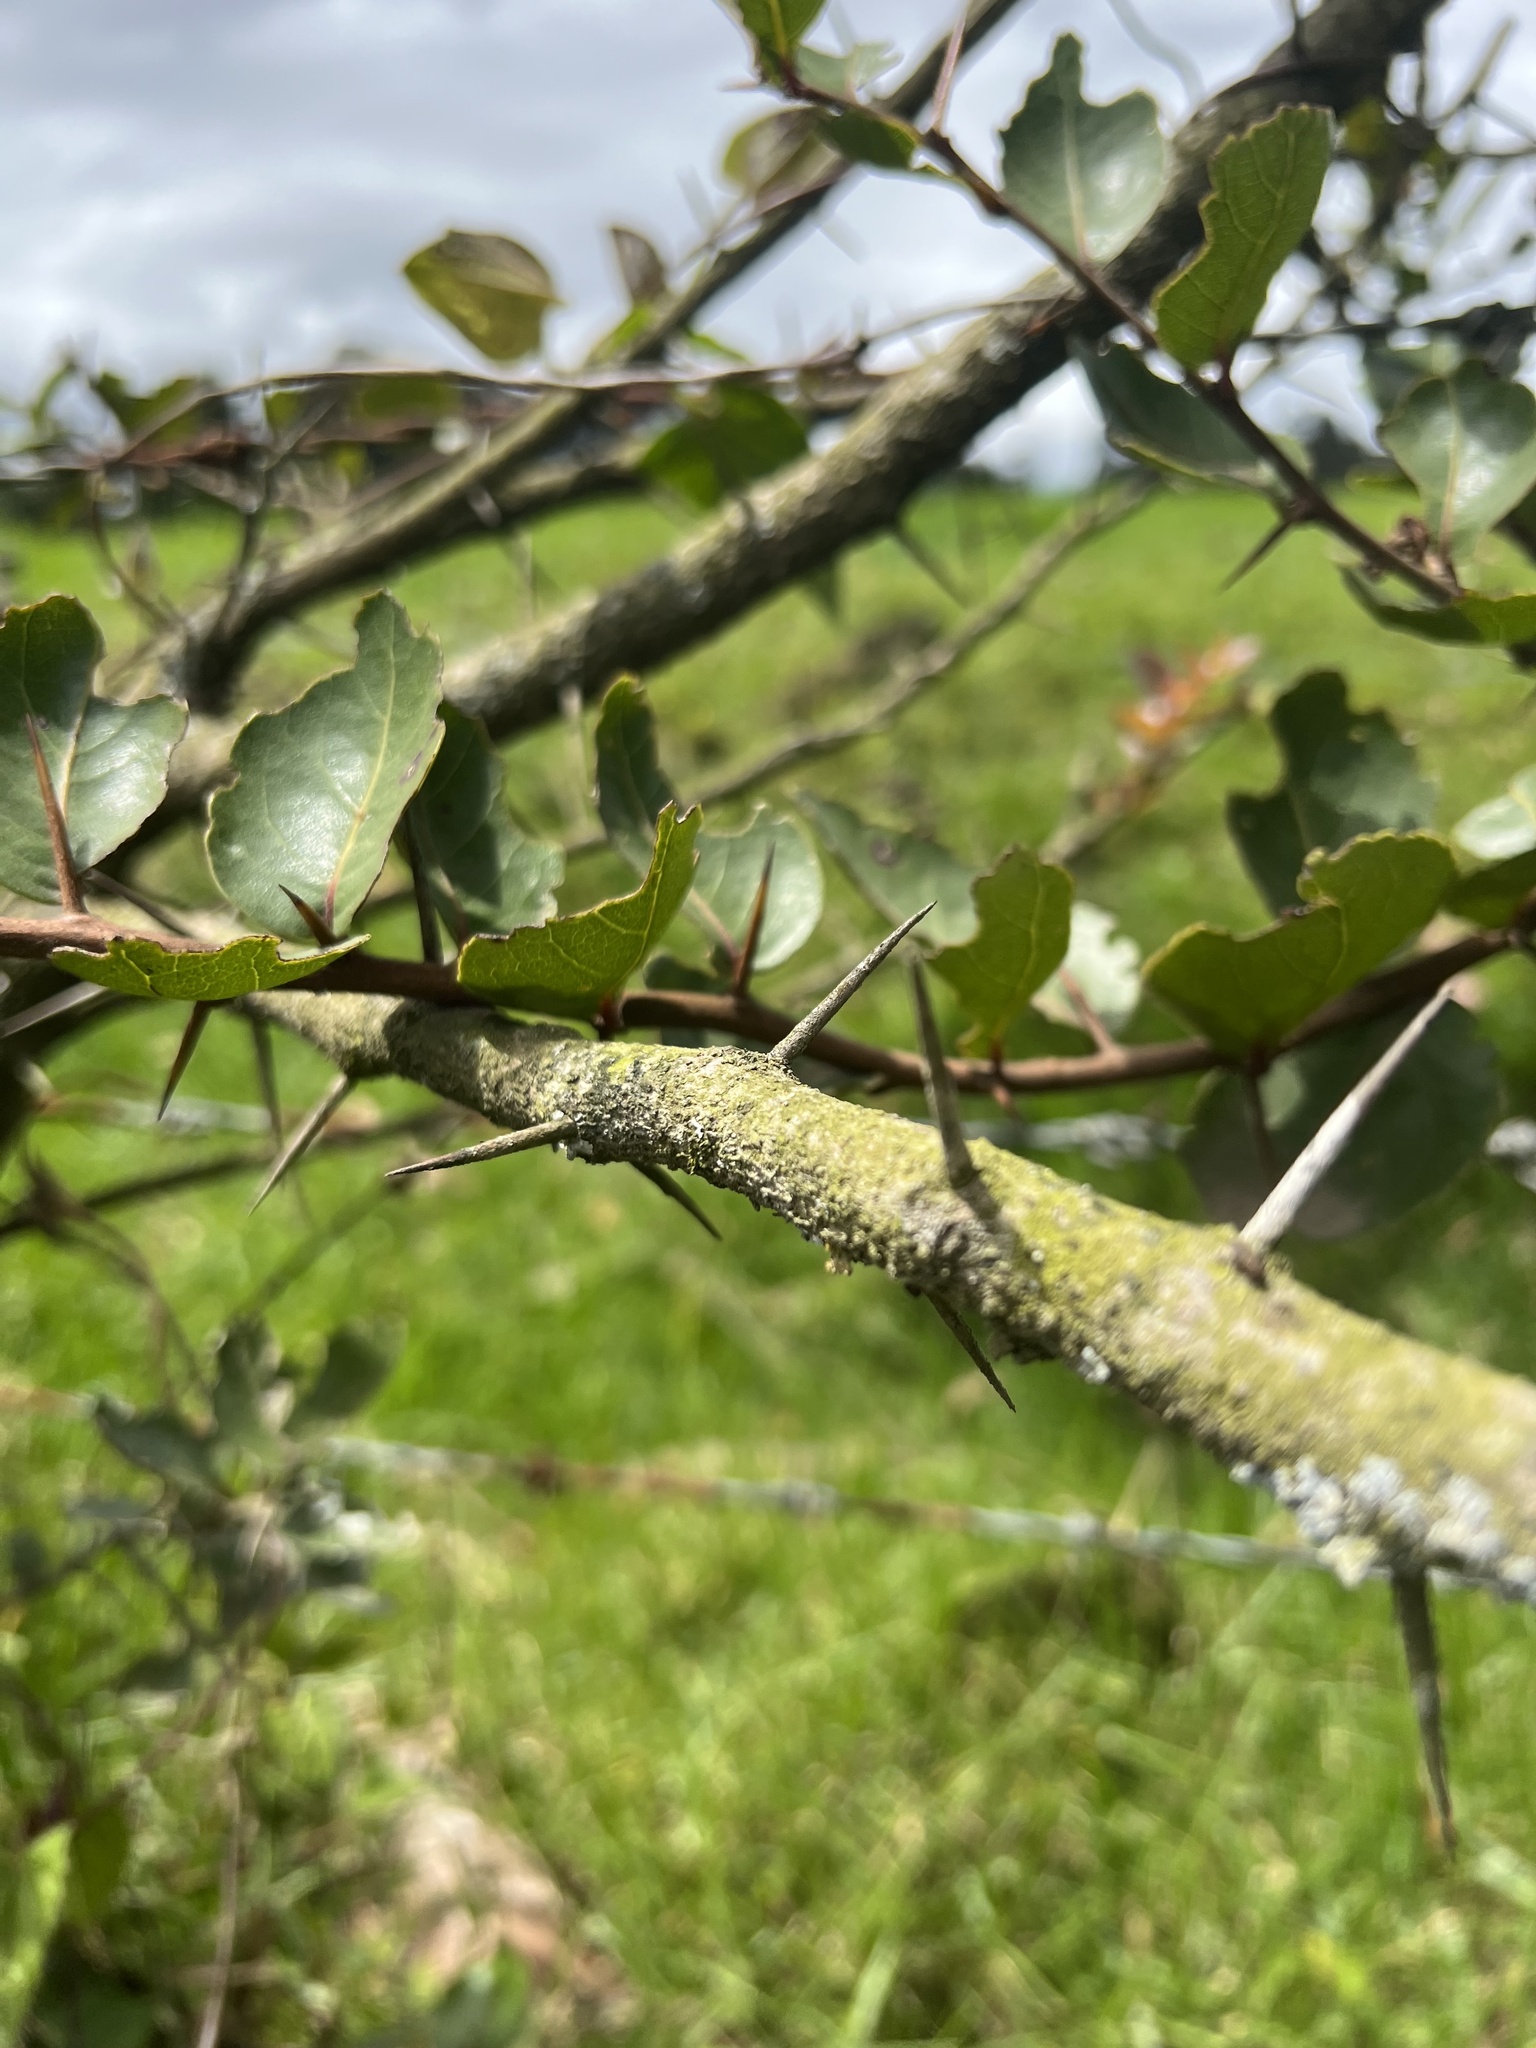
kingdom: Plantae
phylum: Tracheophyta
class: Magnoliopsida
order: Malpighiales
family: Salicaceae
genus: Xylosma
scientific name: Xylosma spiculifera
